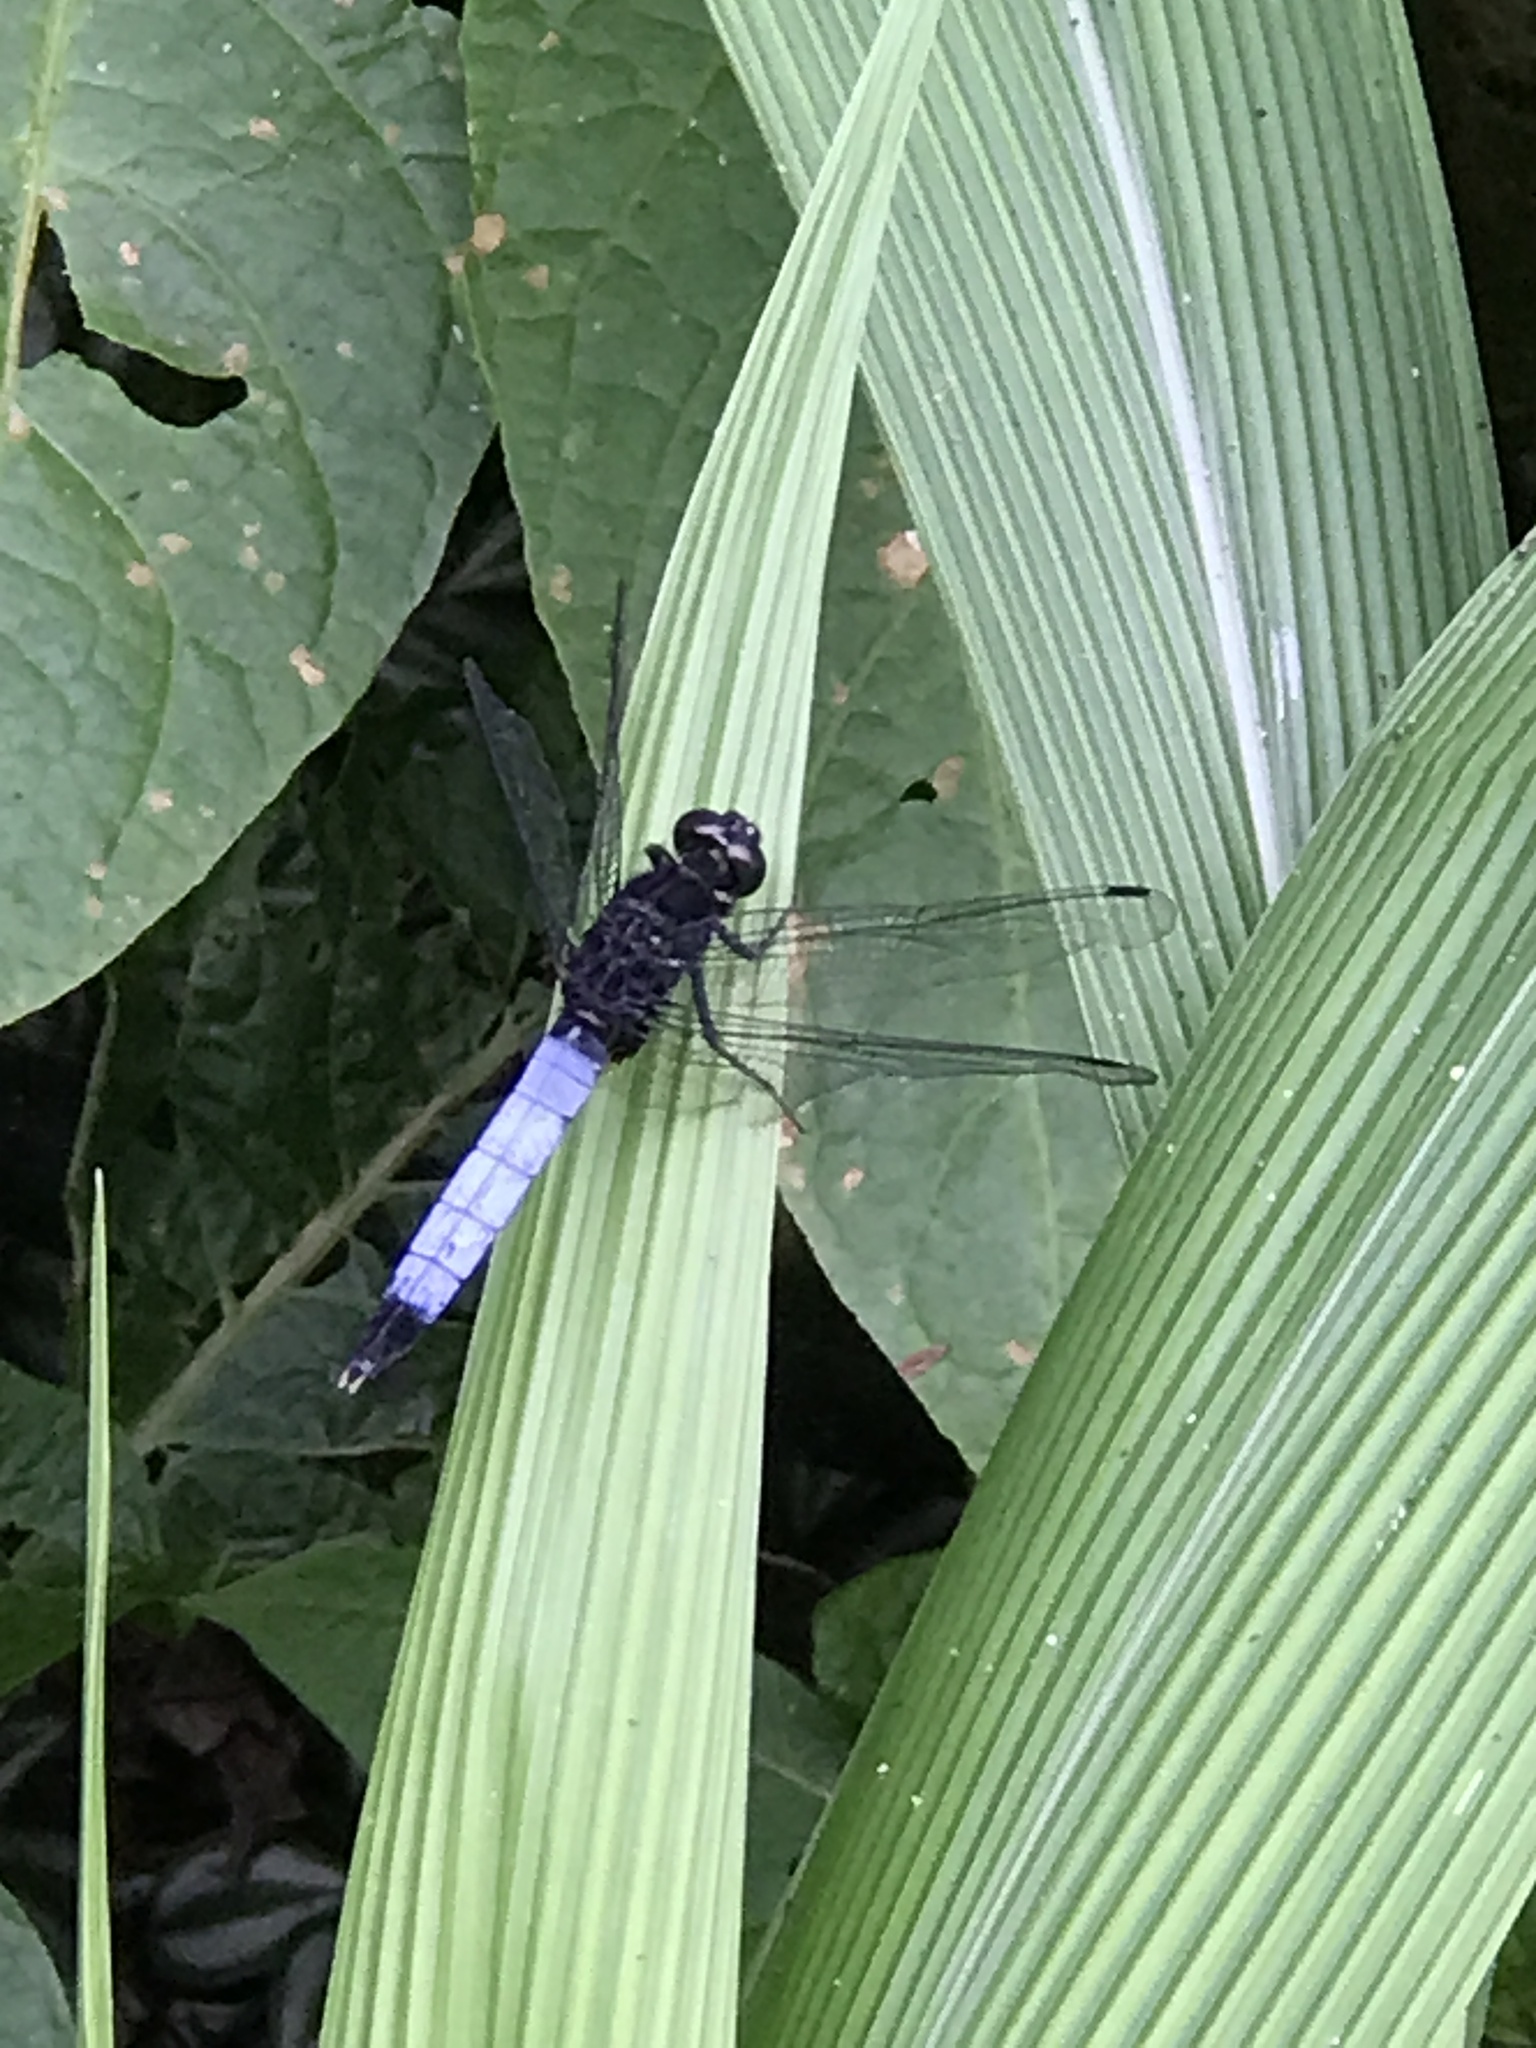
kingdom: Animalia
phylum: Arthropoda
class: Insecta
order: Odonata
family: Libellulidae
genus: Orthetrum
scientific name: Orthetrum triangulare
